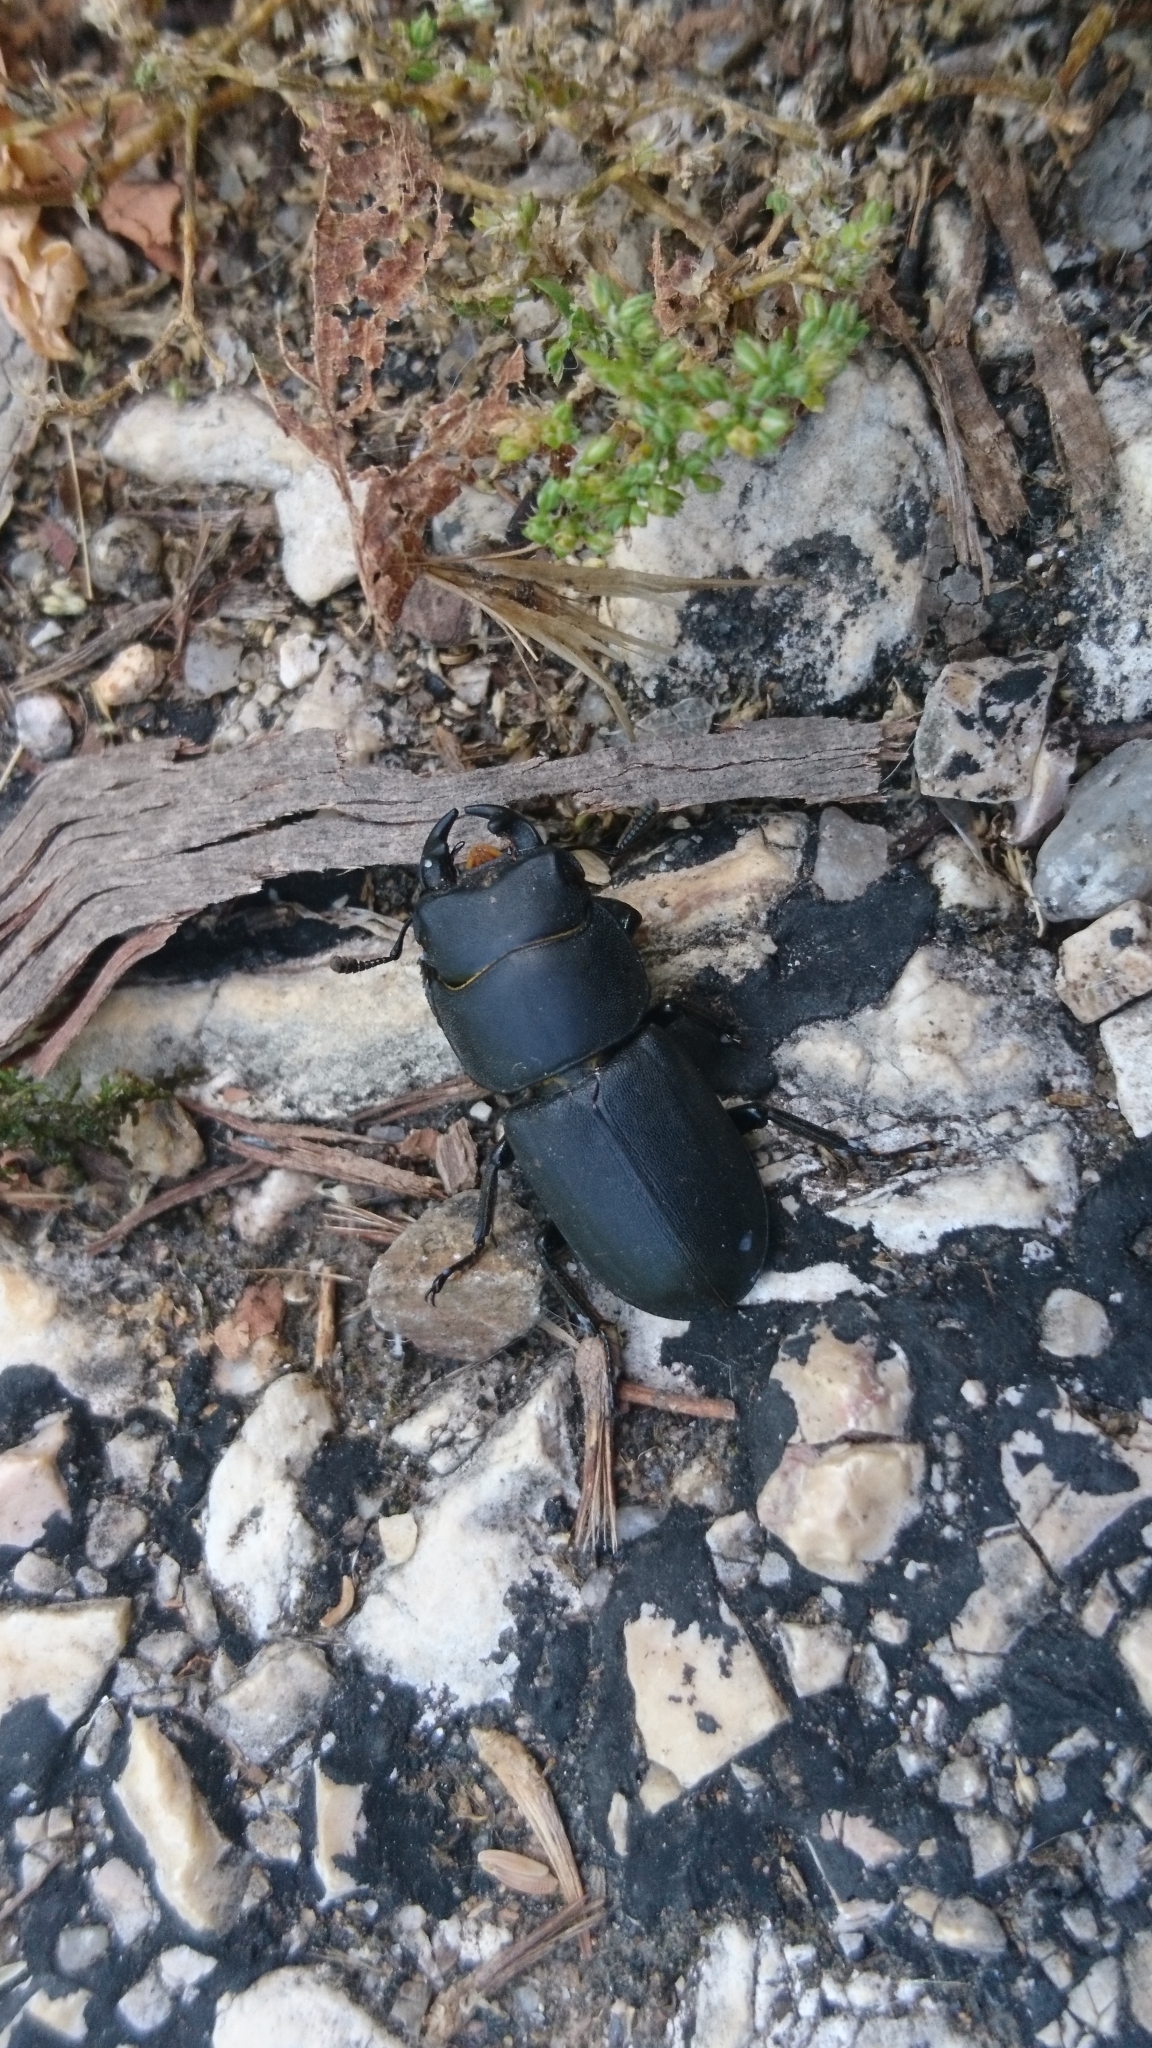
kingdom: Animalia
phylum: Arthropoda
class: Insecta
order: Coleoptera
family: Lucanidae
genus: Dorcus
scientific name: Dorcus parallelipipedus
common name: Lesser stag beetle
